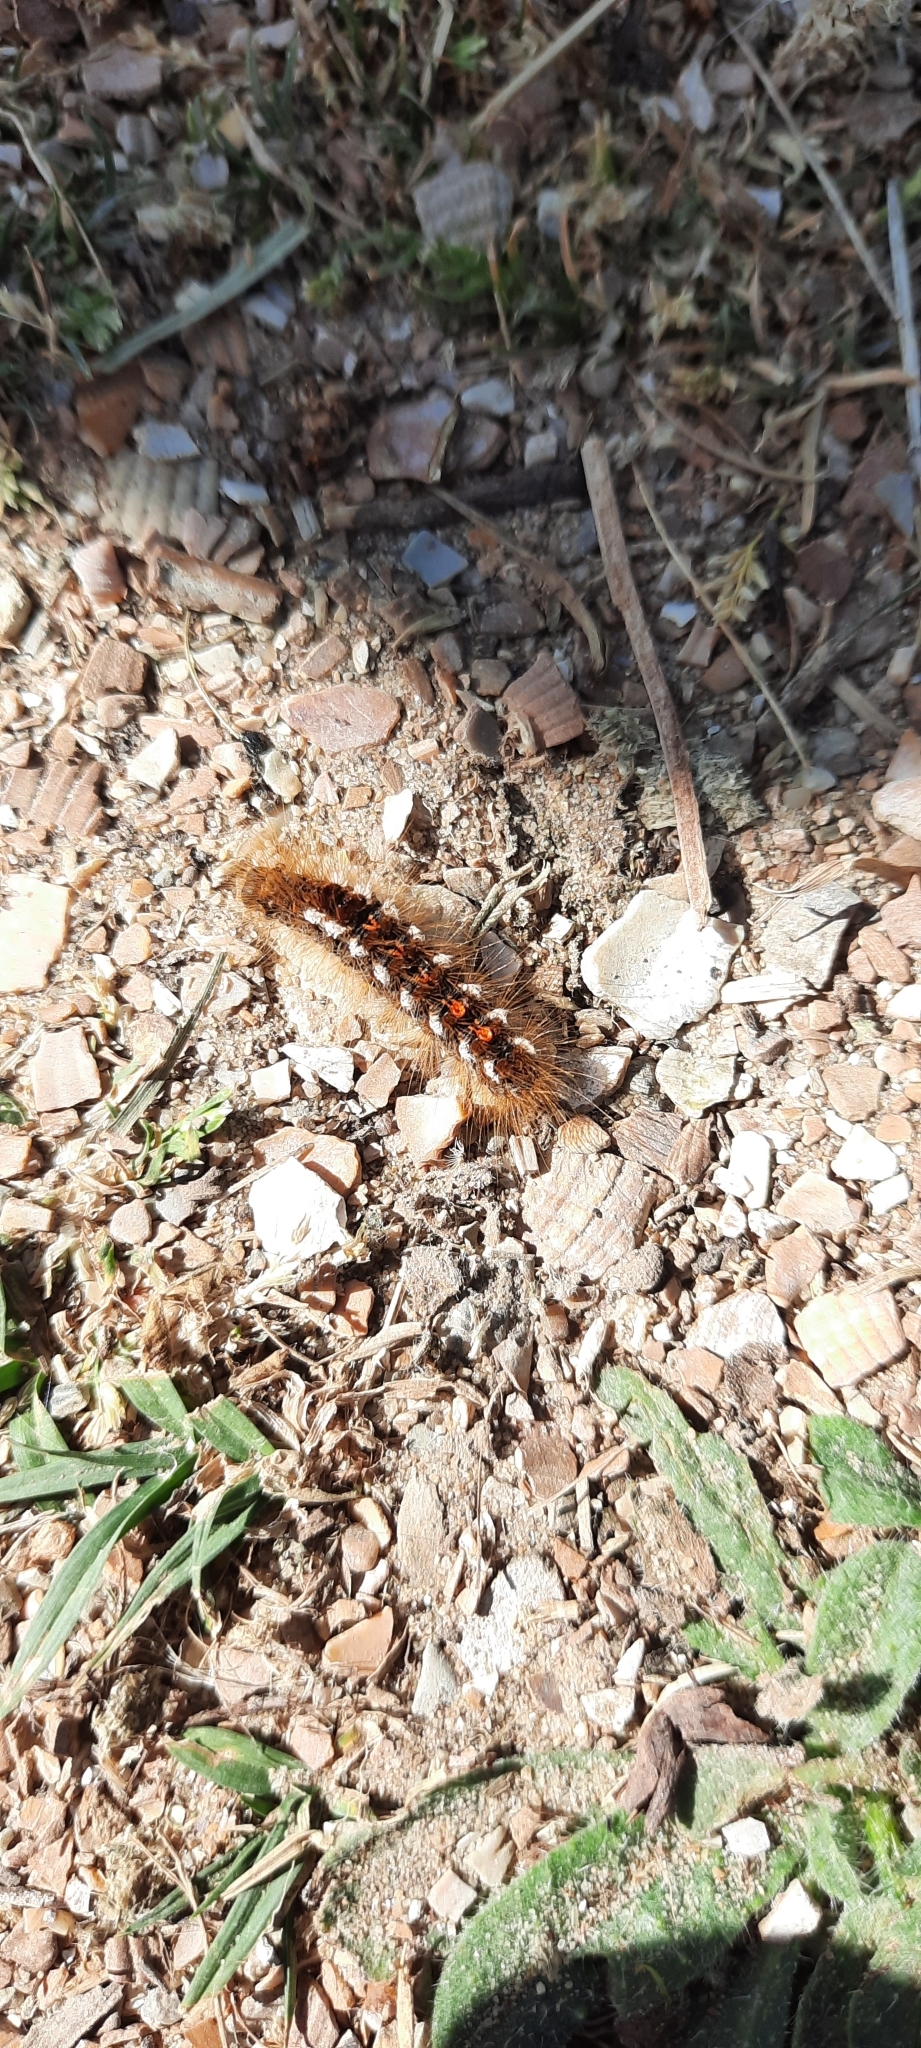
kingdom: Animalia
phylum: Arthropoda
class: Insecta
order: Lepidoptera
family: Erebidae
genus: Euproctis
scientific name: Euproctis chrysorrhoea
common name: Brown-tail
